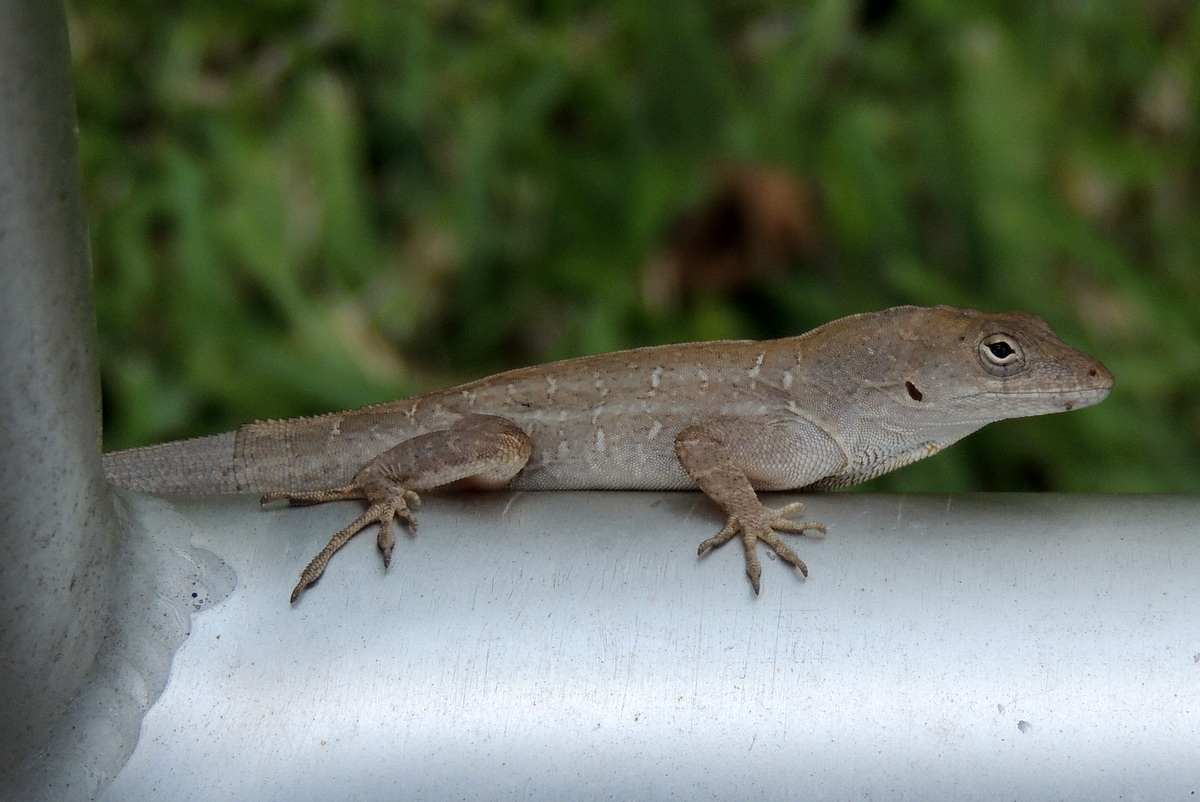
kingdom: Animalia
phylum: Chordata
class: Squamata
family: Dactyloidae
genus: Anolis
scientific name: Anolis sagrei
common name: Brown anole
